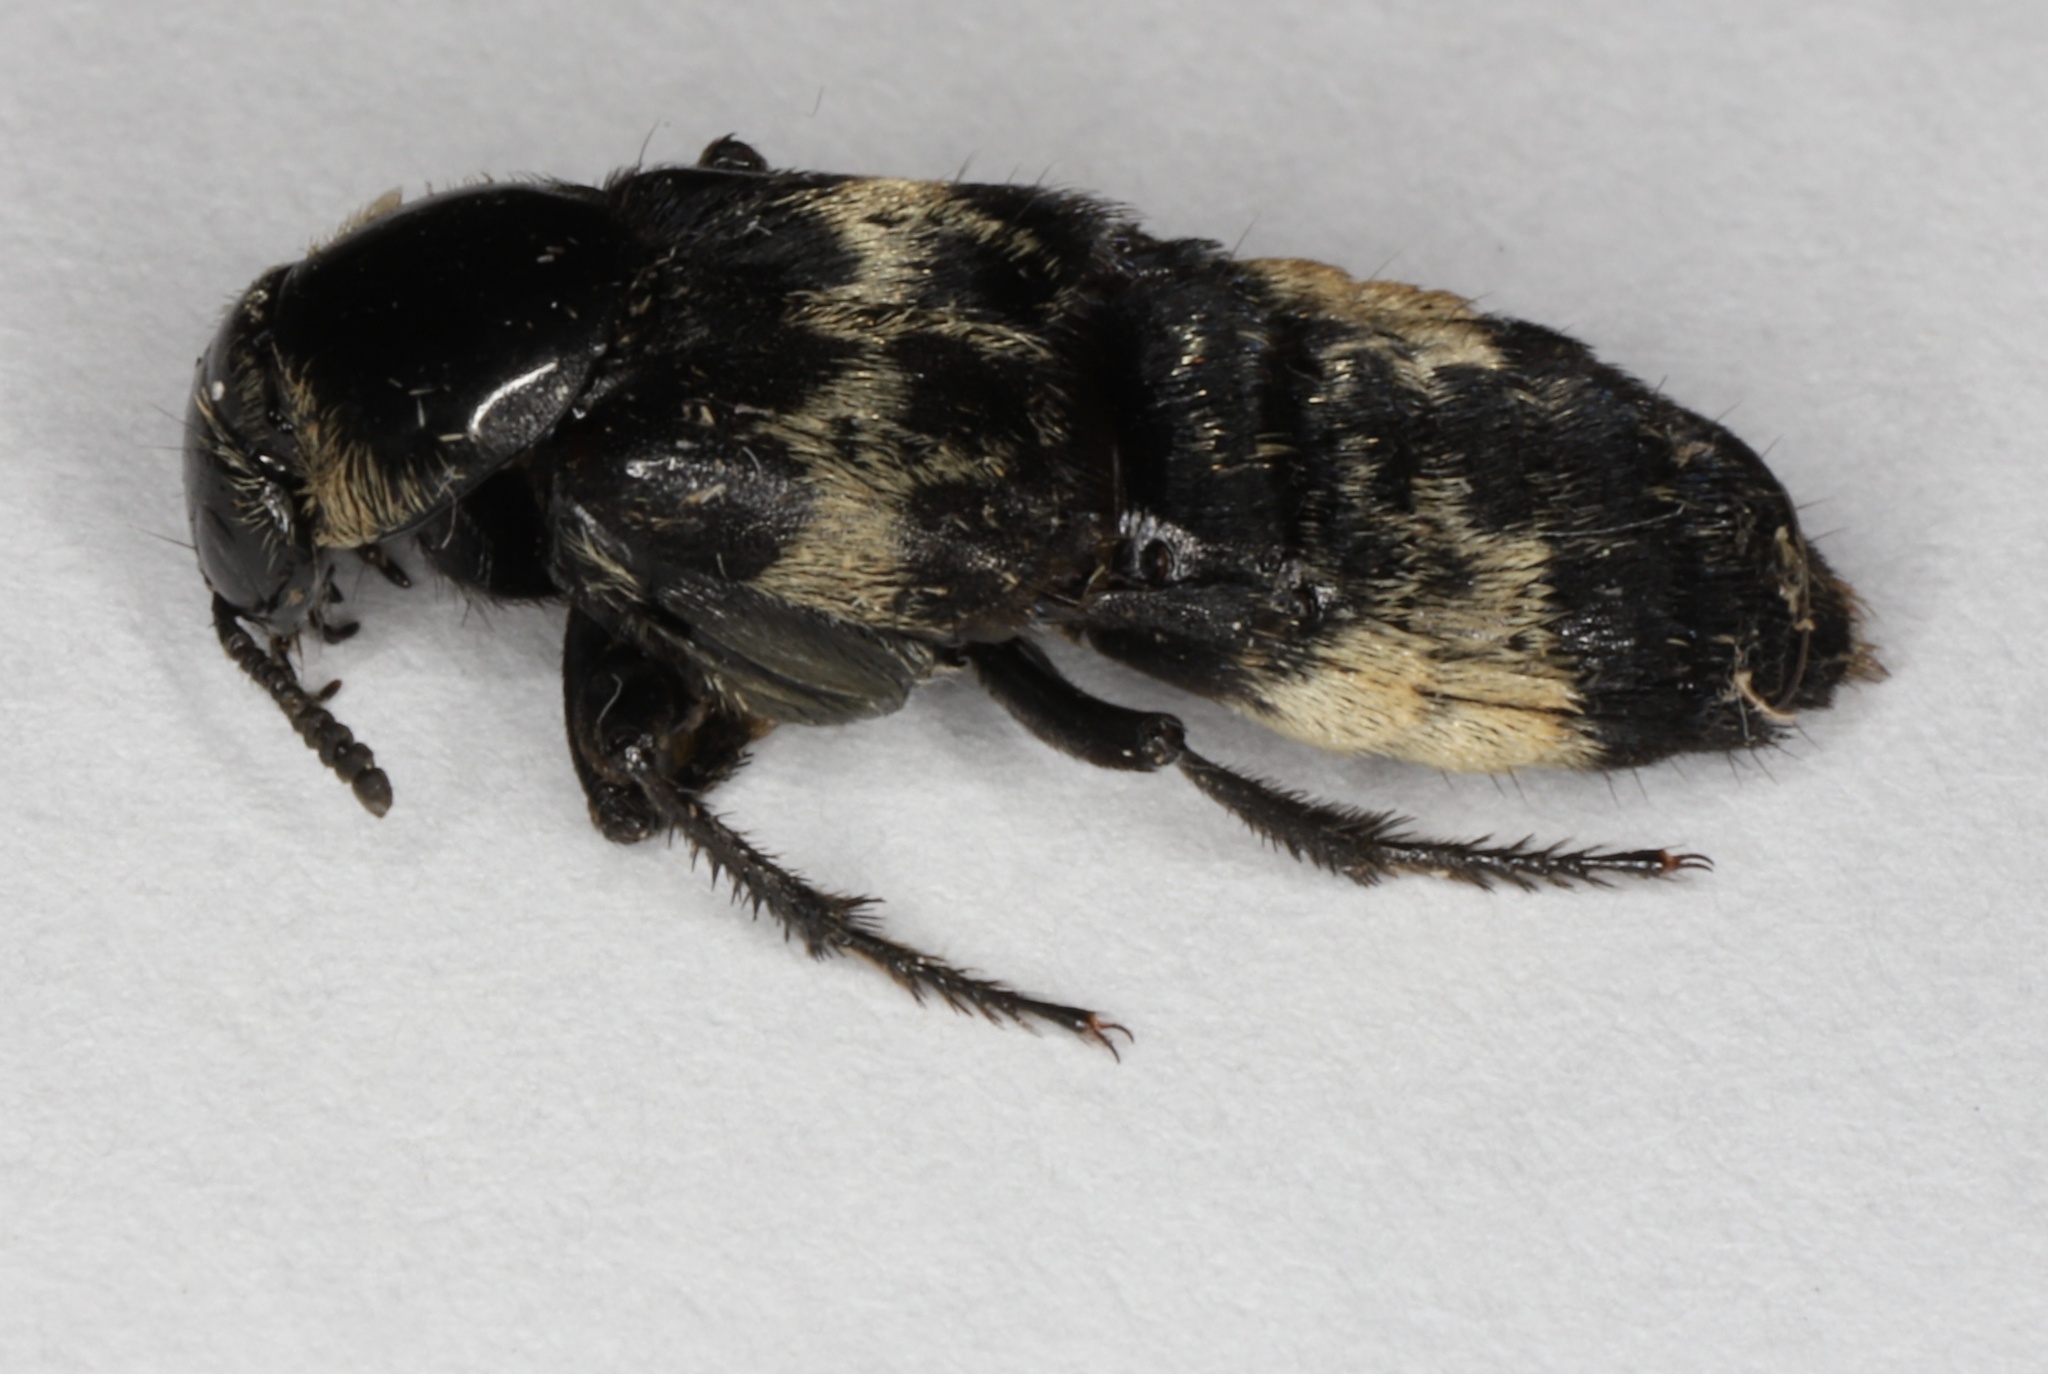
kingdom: Animalia
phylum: Arthropoda
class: Insecta
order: Coleoptera
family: Staphylinidae
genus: Creophilus
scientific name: Creophilus maxillosus
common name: Hairy rove beetle
